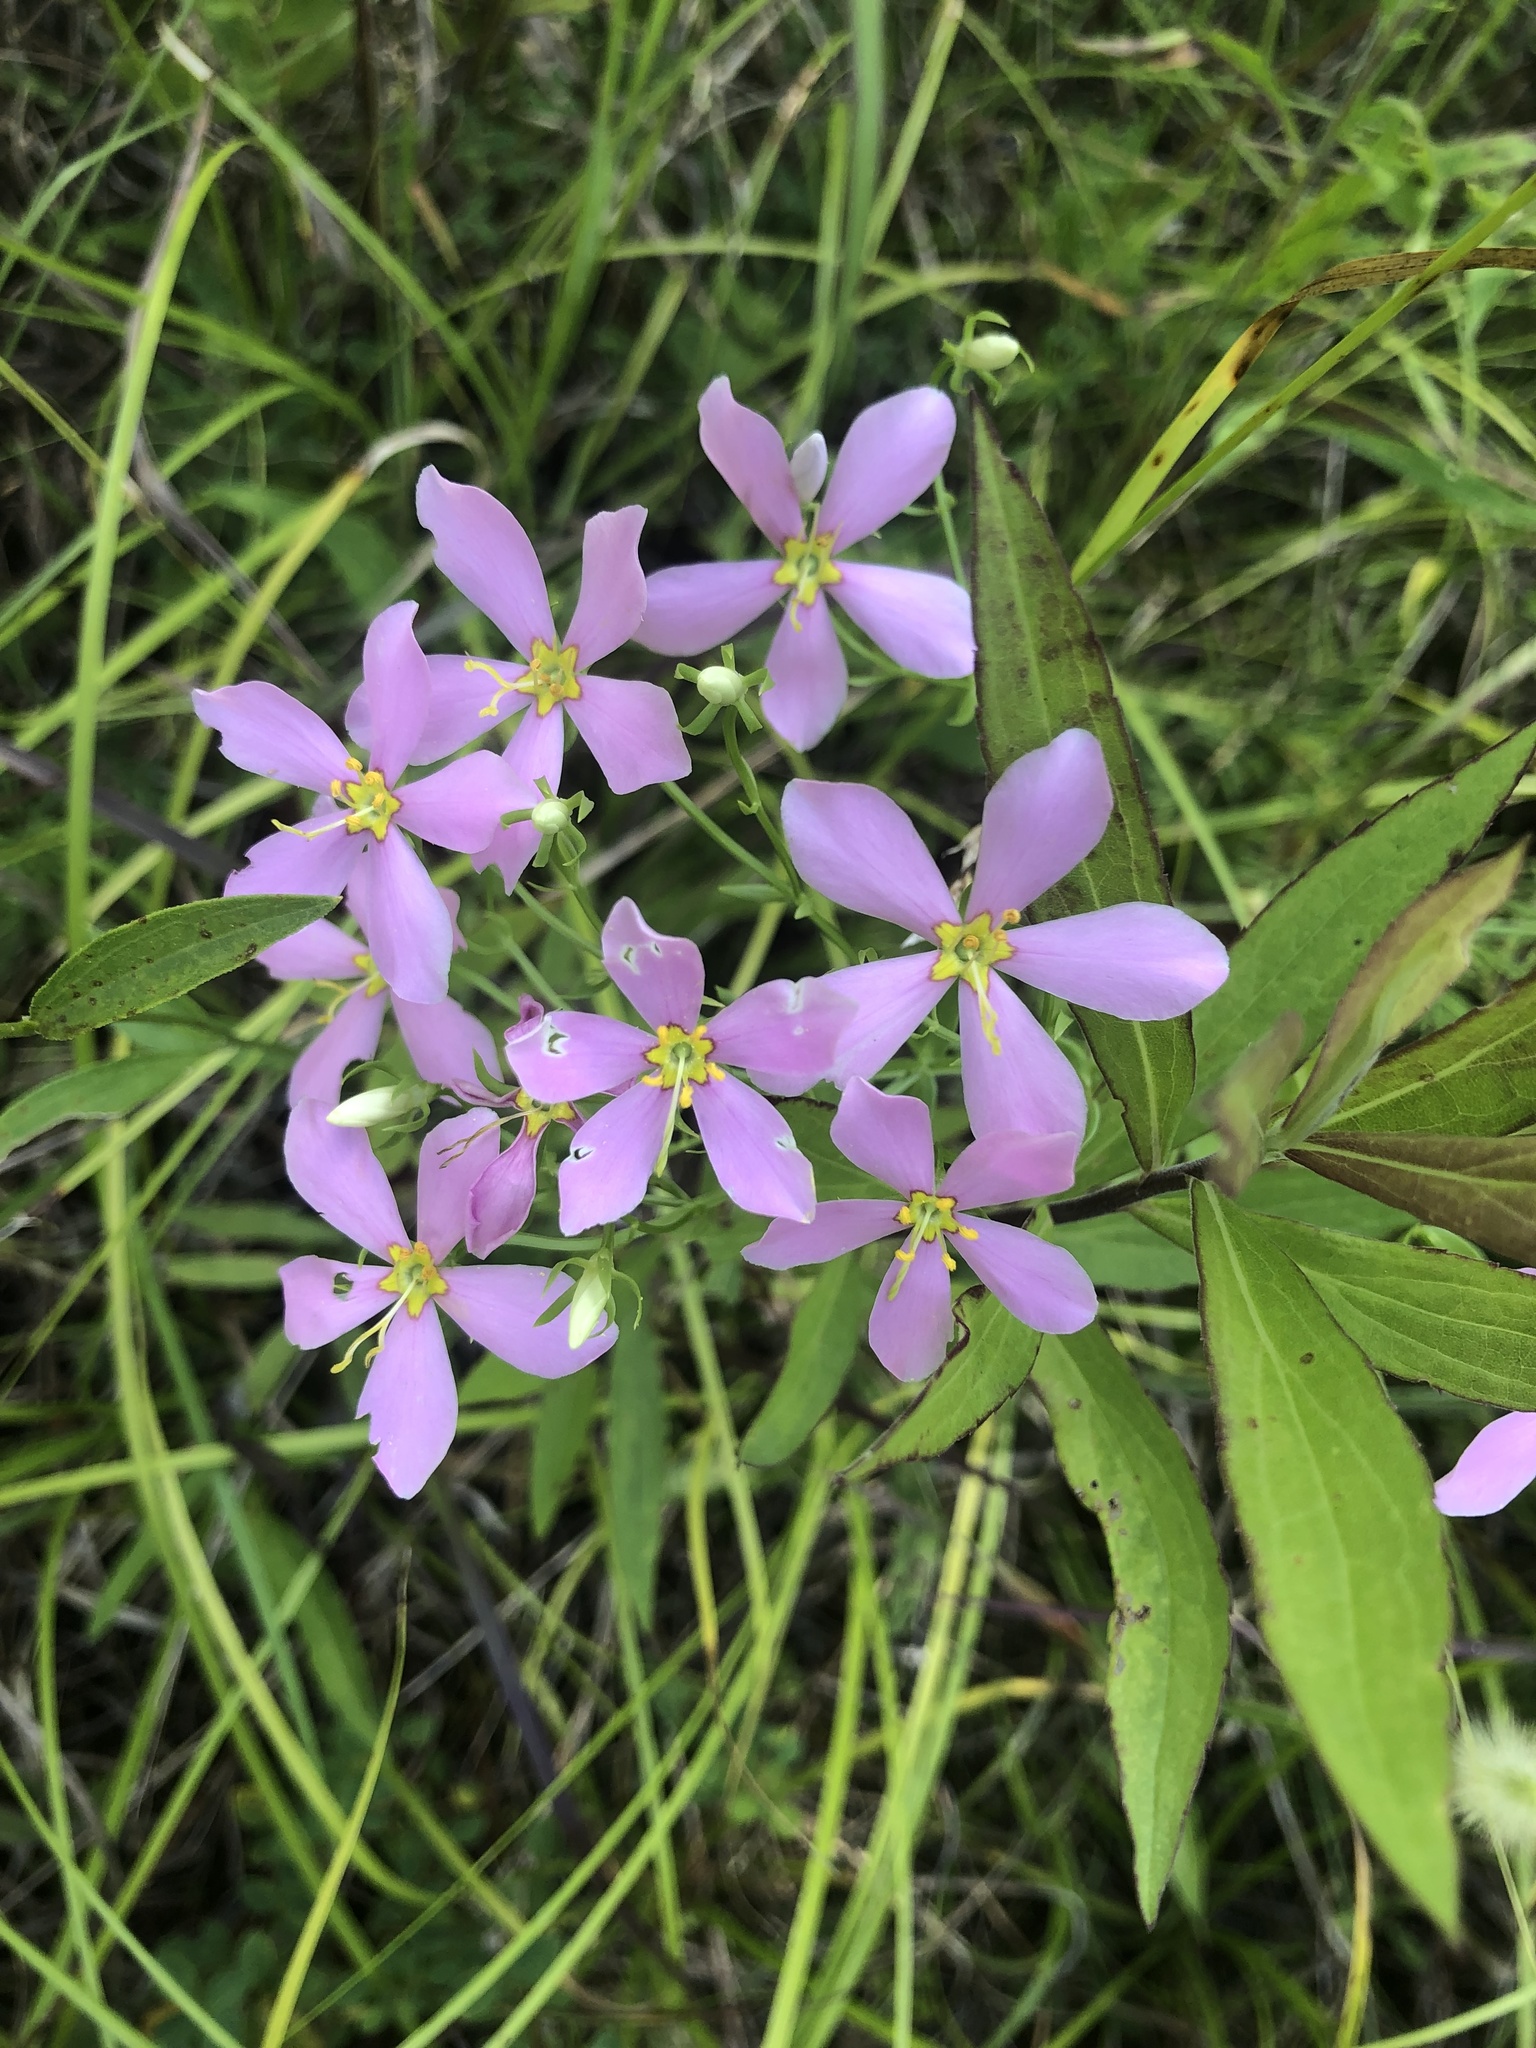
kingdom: Plantae
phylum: Tracheophyta
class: Magnoliopsida
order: Gentianales
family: Gentianaceae
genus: Sabatia
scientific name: Sabatia angularis
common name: Rose-pink
